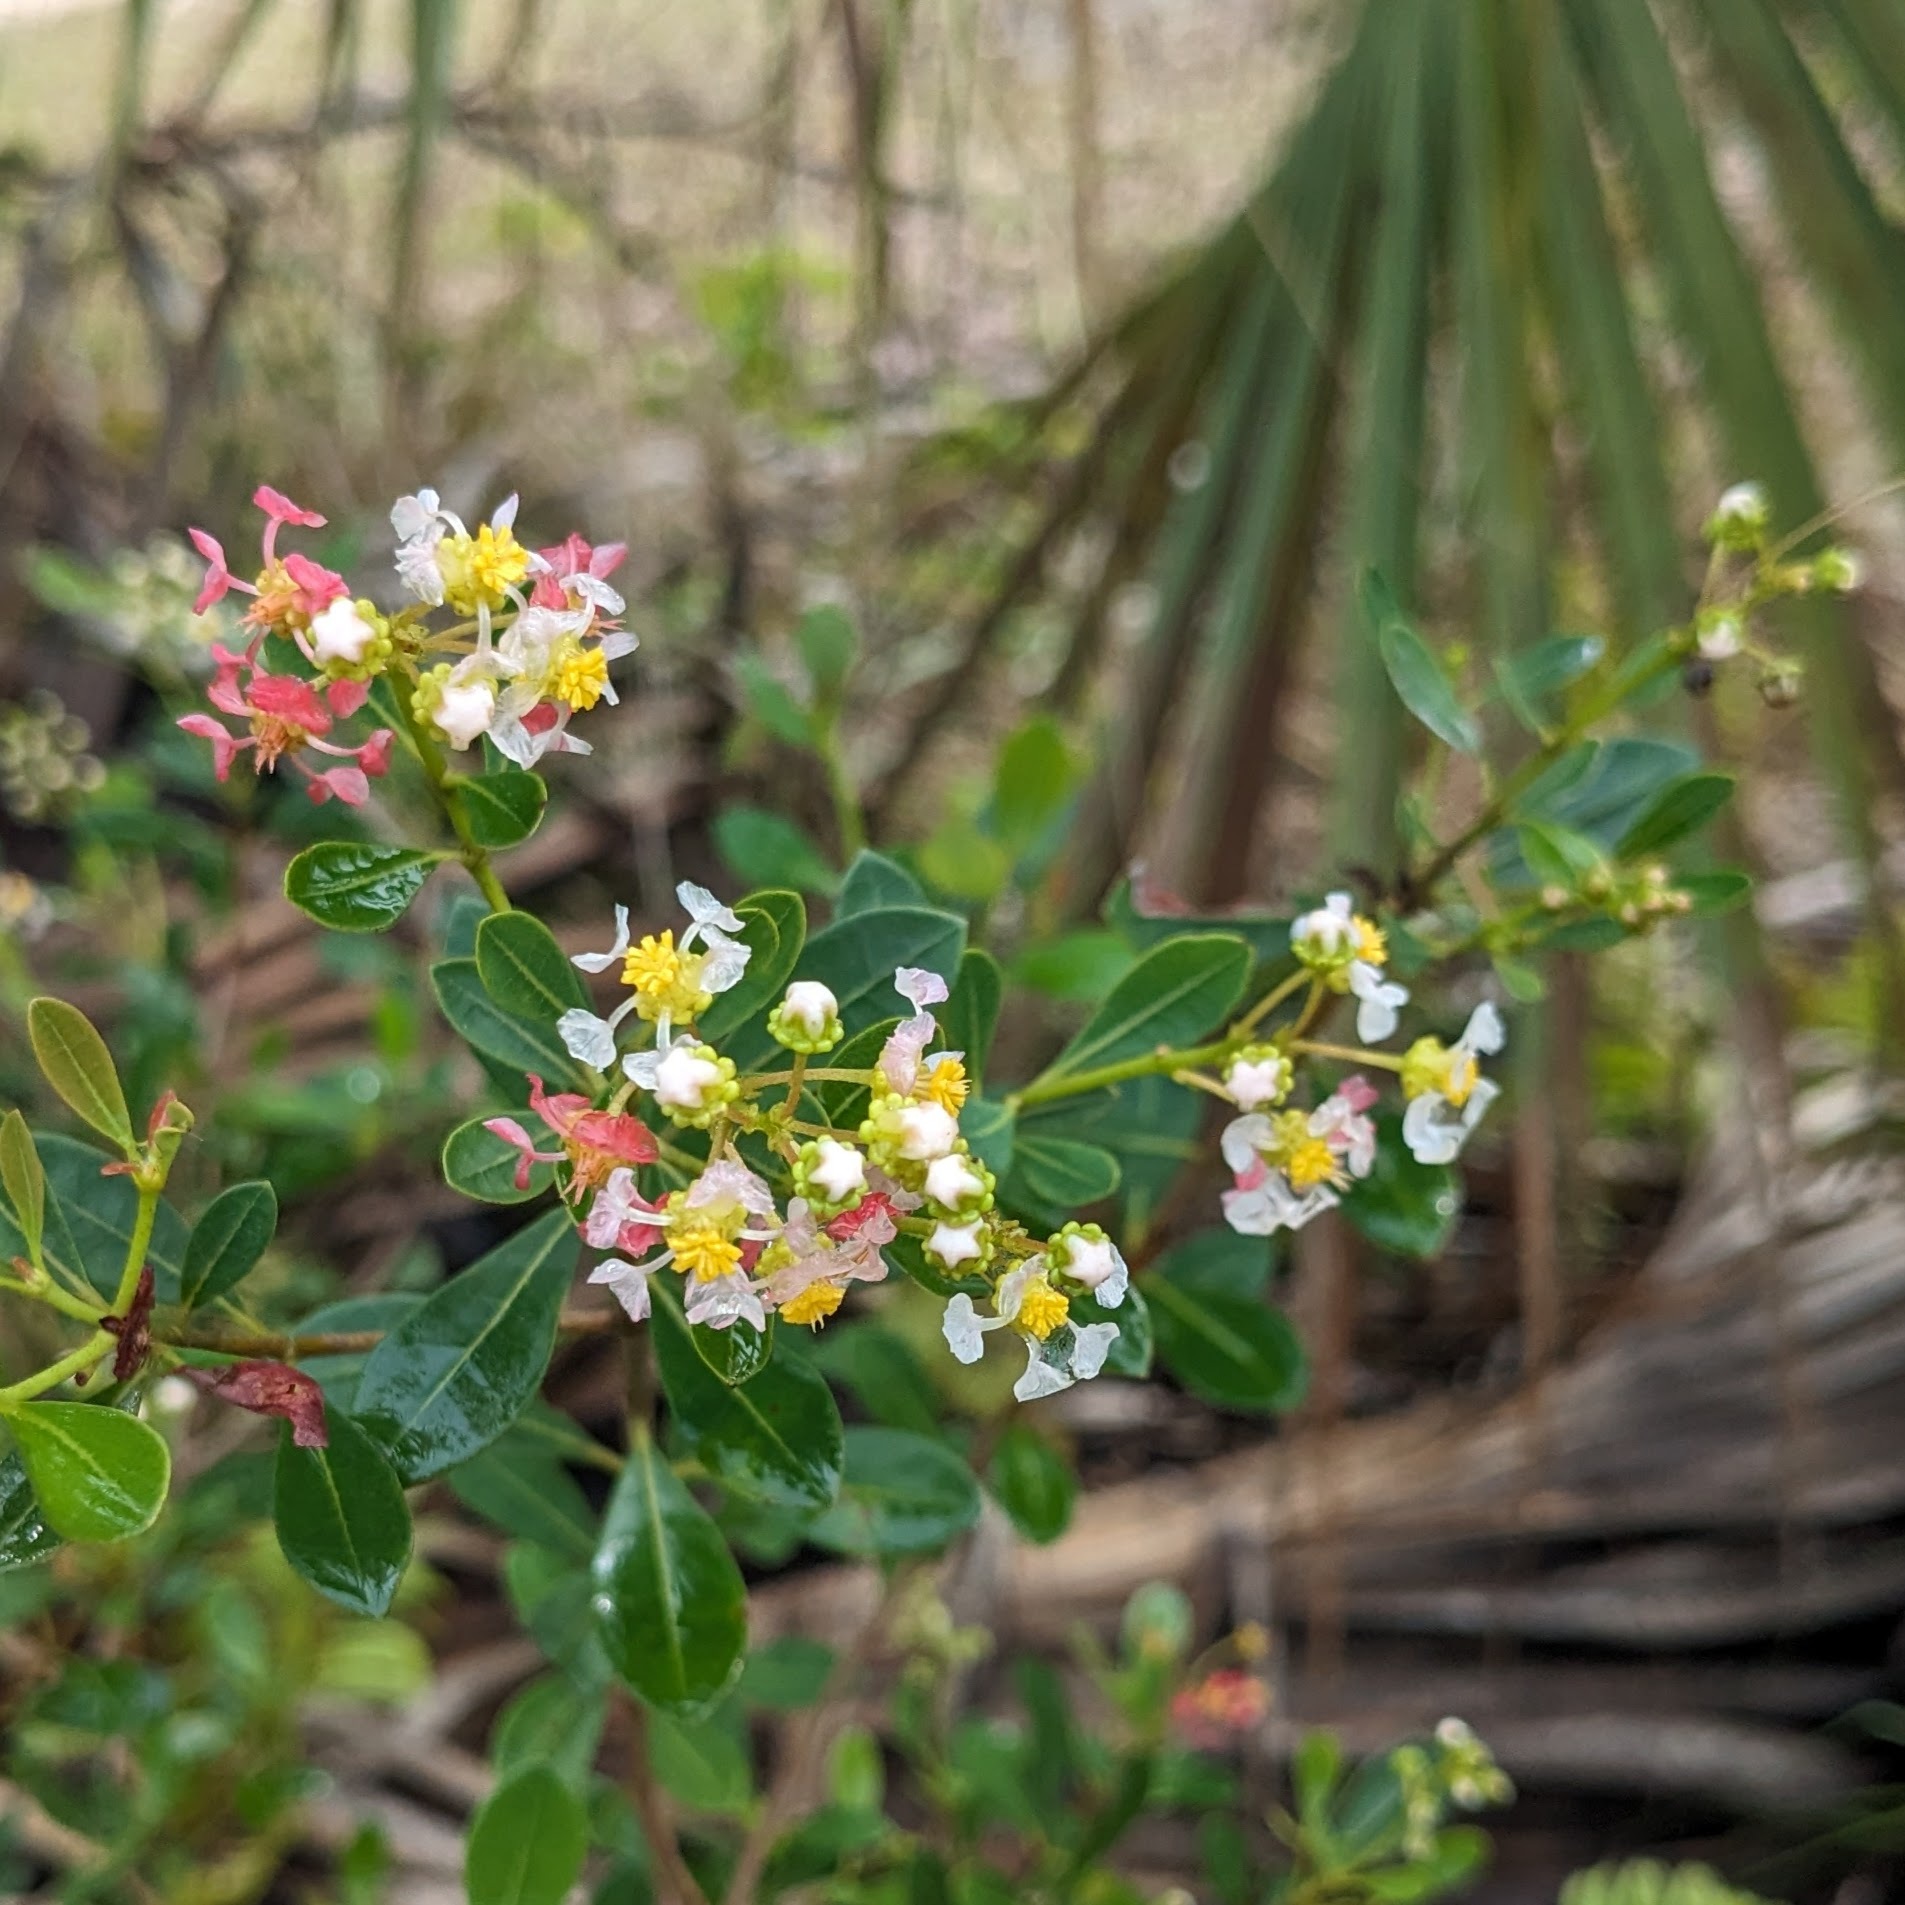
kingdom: Plantae
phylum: Tracheophyta
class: Magnoliopsida
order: Malpighiales
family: Malpighiaceae
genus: Byrsonima
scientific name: Byrsonima lucida
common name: Clam-cherry
